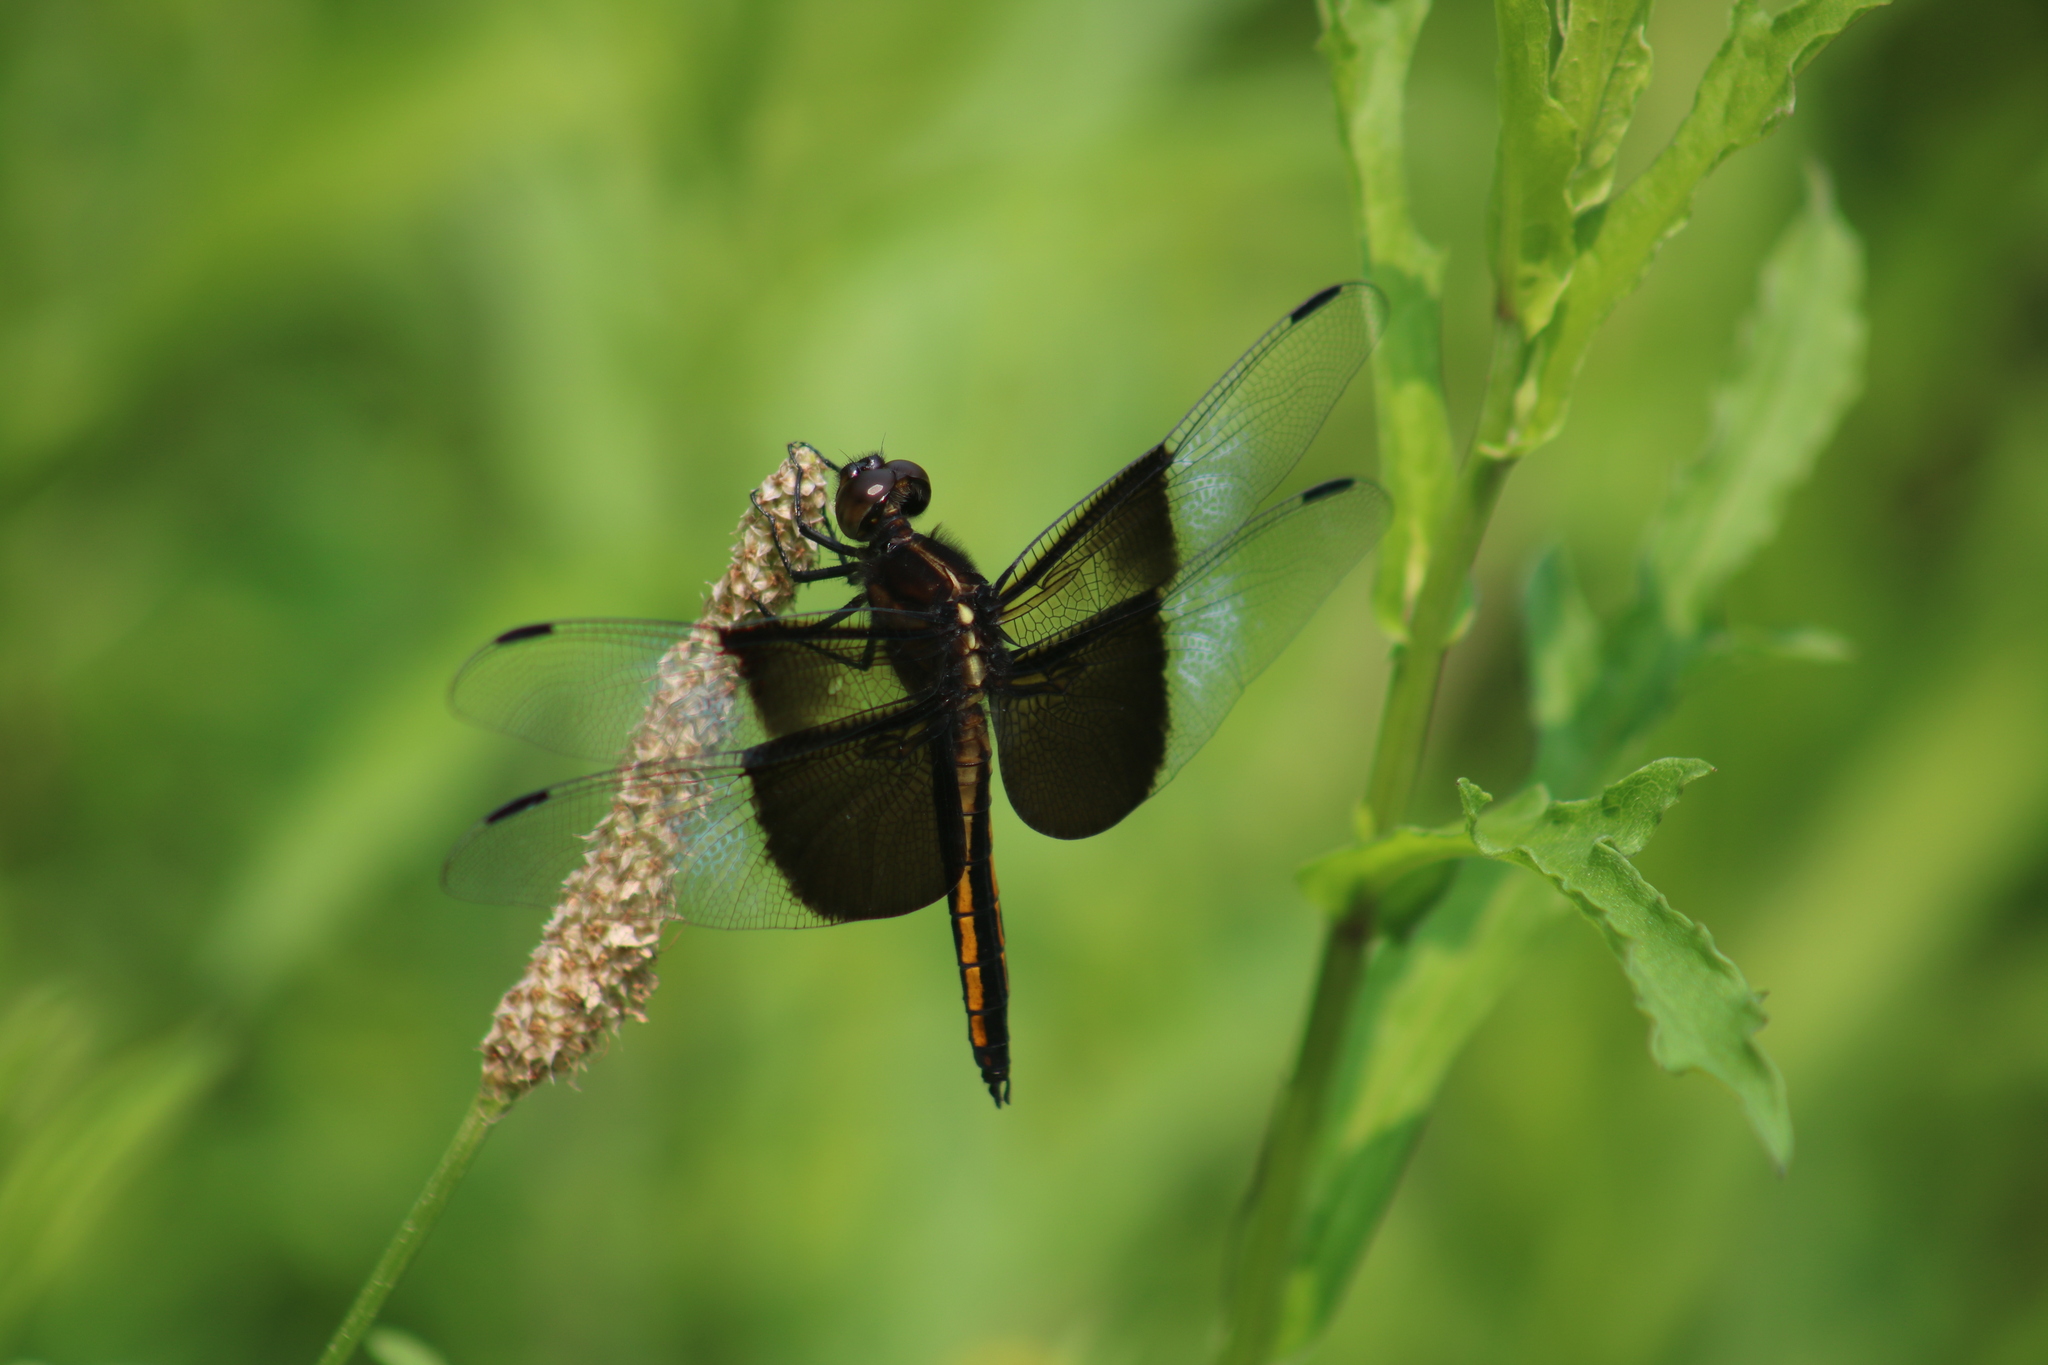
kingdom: Animalia
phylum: Arthropoda
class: Insecta
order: Odonata
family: Libellulidae
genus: Libellula
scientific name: Libellula luctuosa
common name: Widow skimmer
